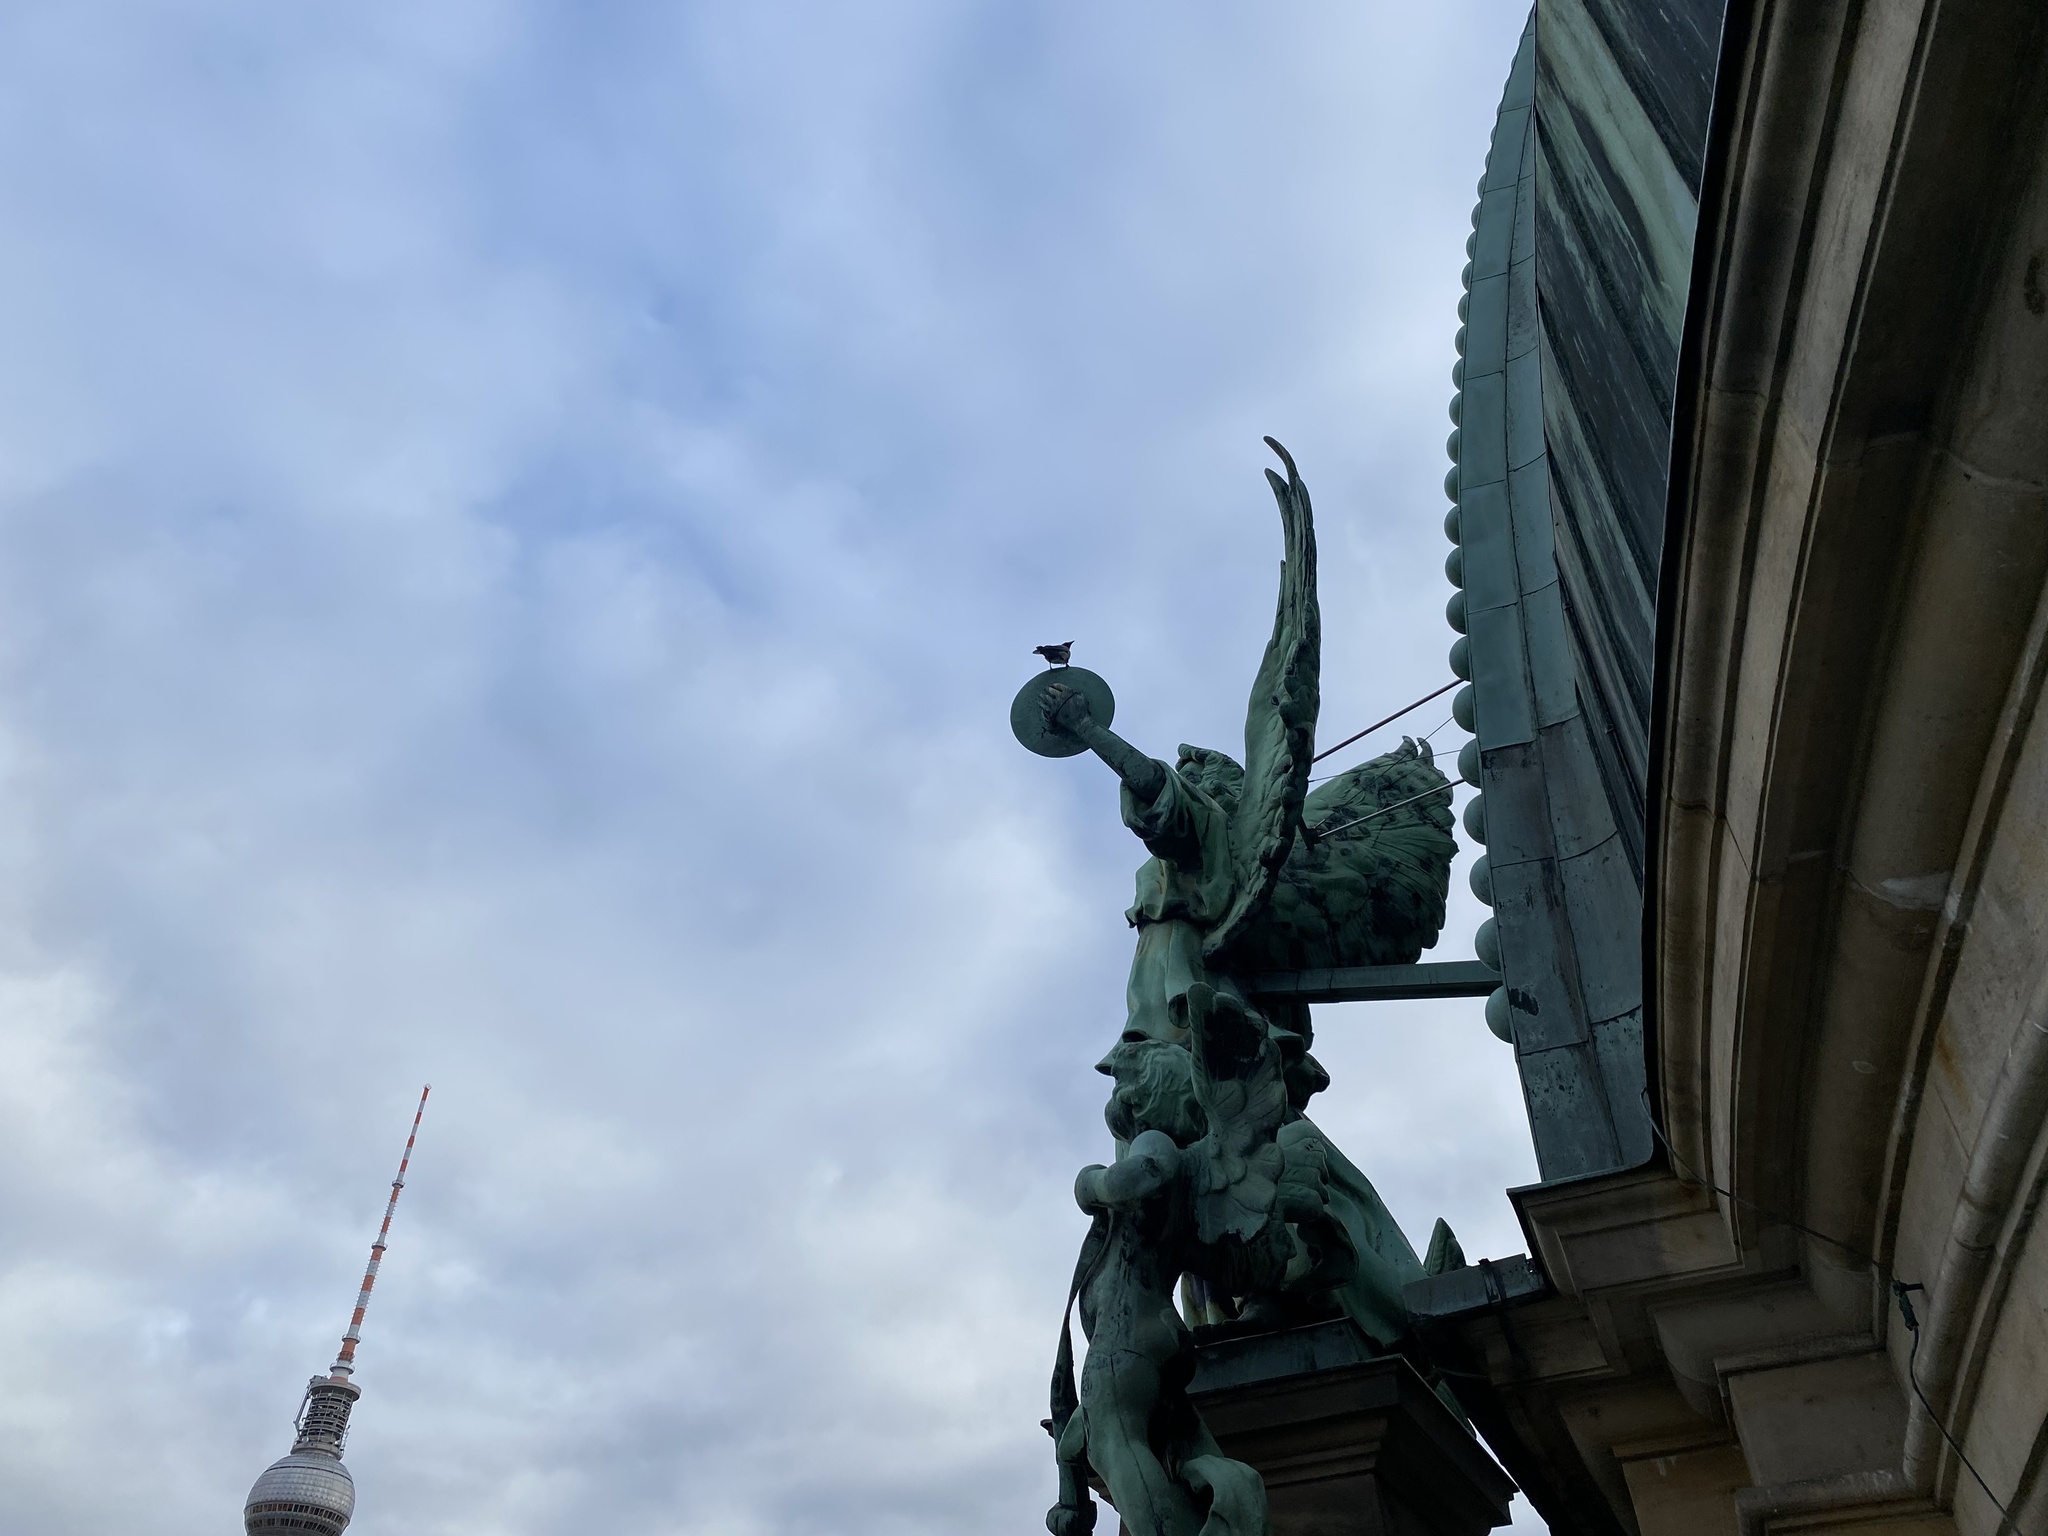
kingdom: Animalia
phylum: Chordata
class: Aves
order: Passeriformes
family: Corvidae
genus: Corvus
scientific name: Corvus cornix
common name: Hooded crow
